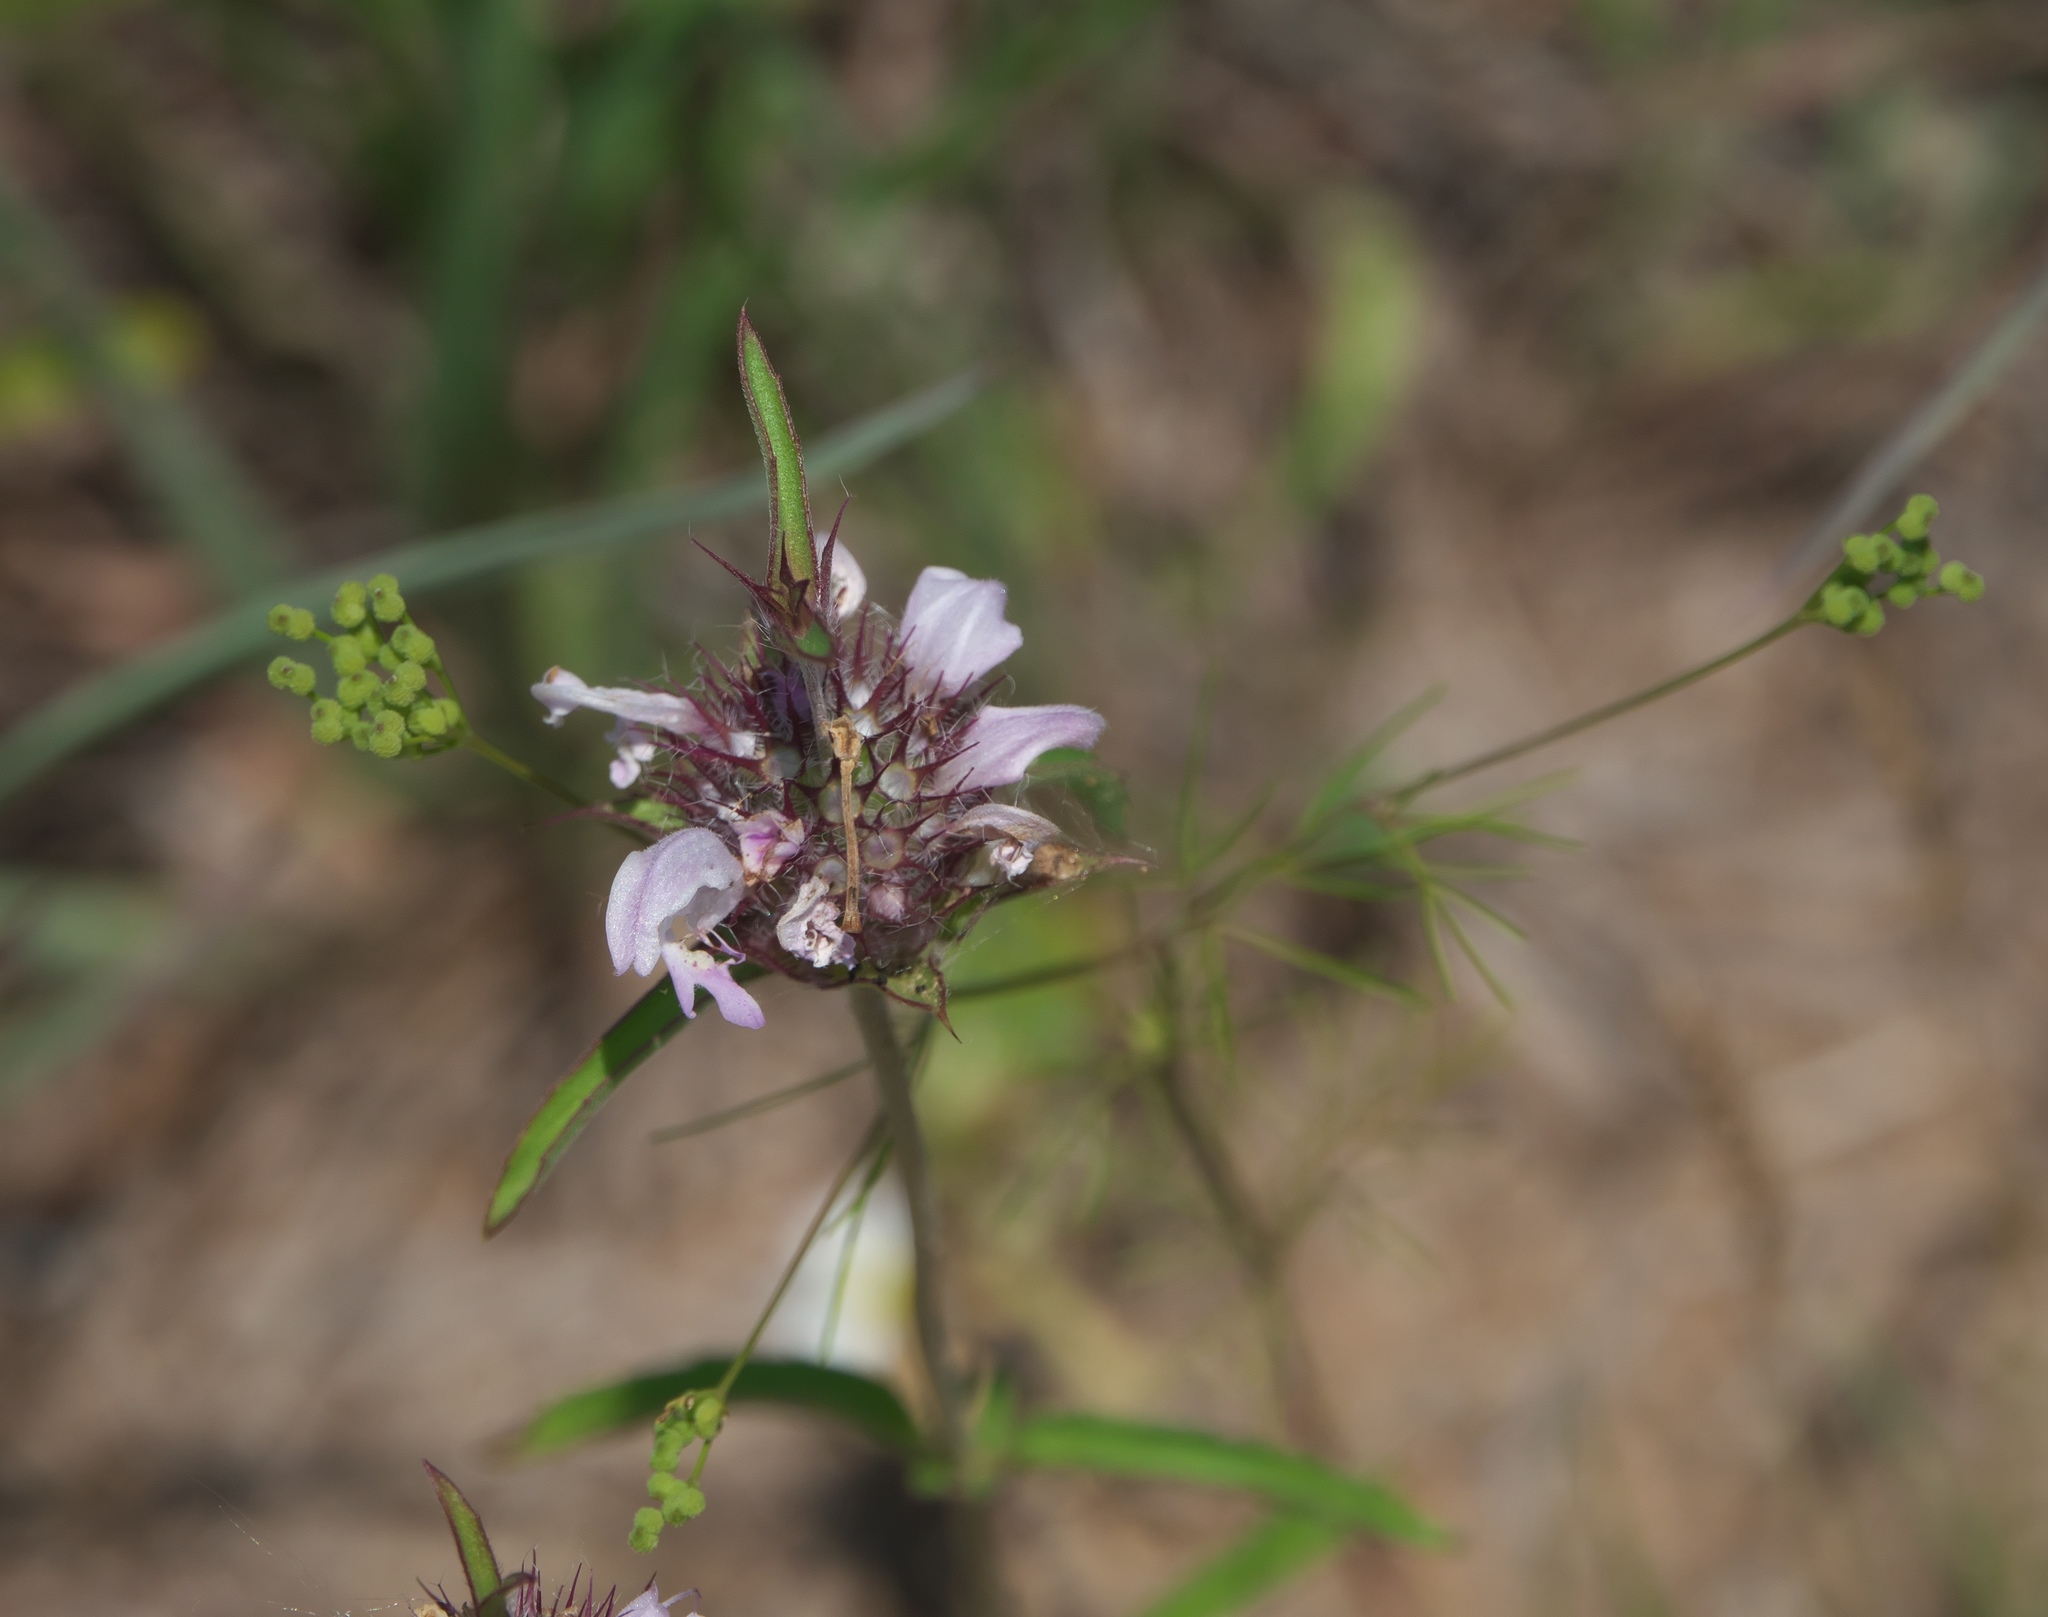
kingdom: Plantae
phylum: Tracheophyta
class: Magnoliopsida
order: Lamiales
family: Lamiaceae
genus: Monarda
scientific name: Monarda citriodora
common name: Lemon beebalm
